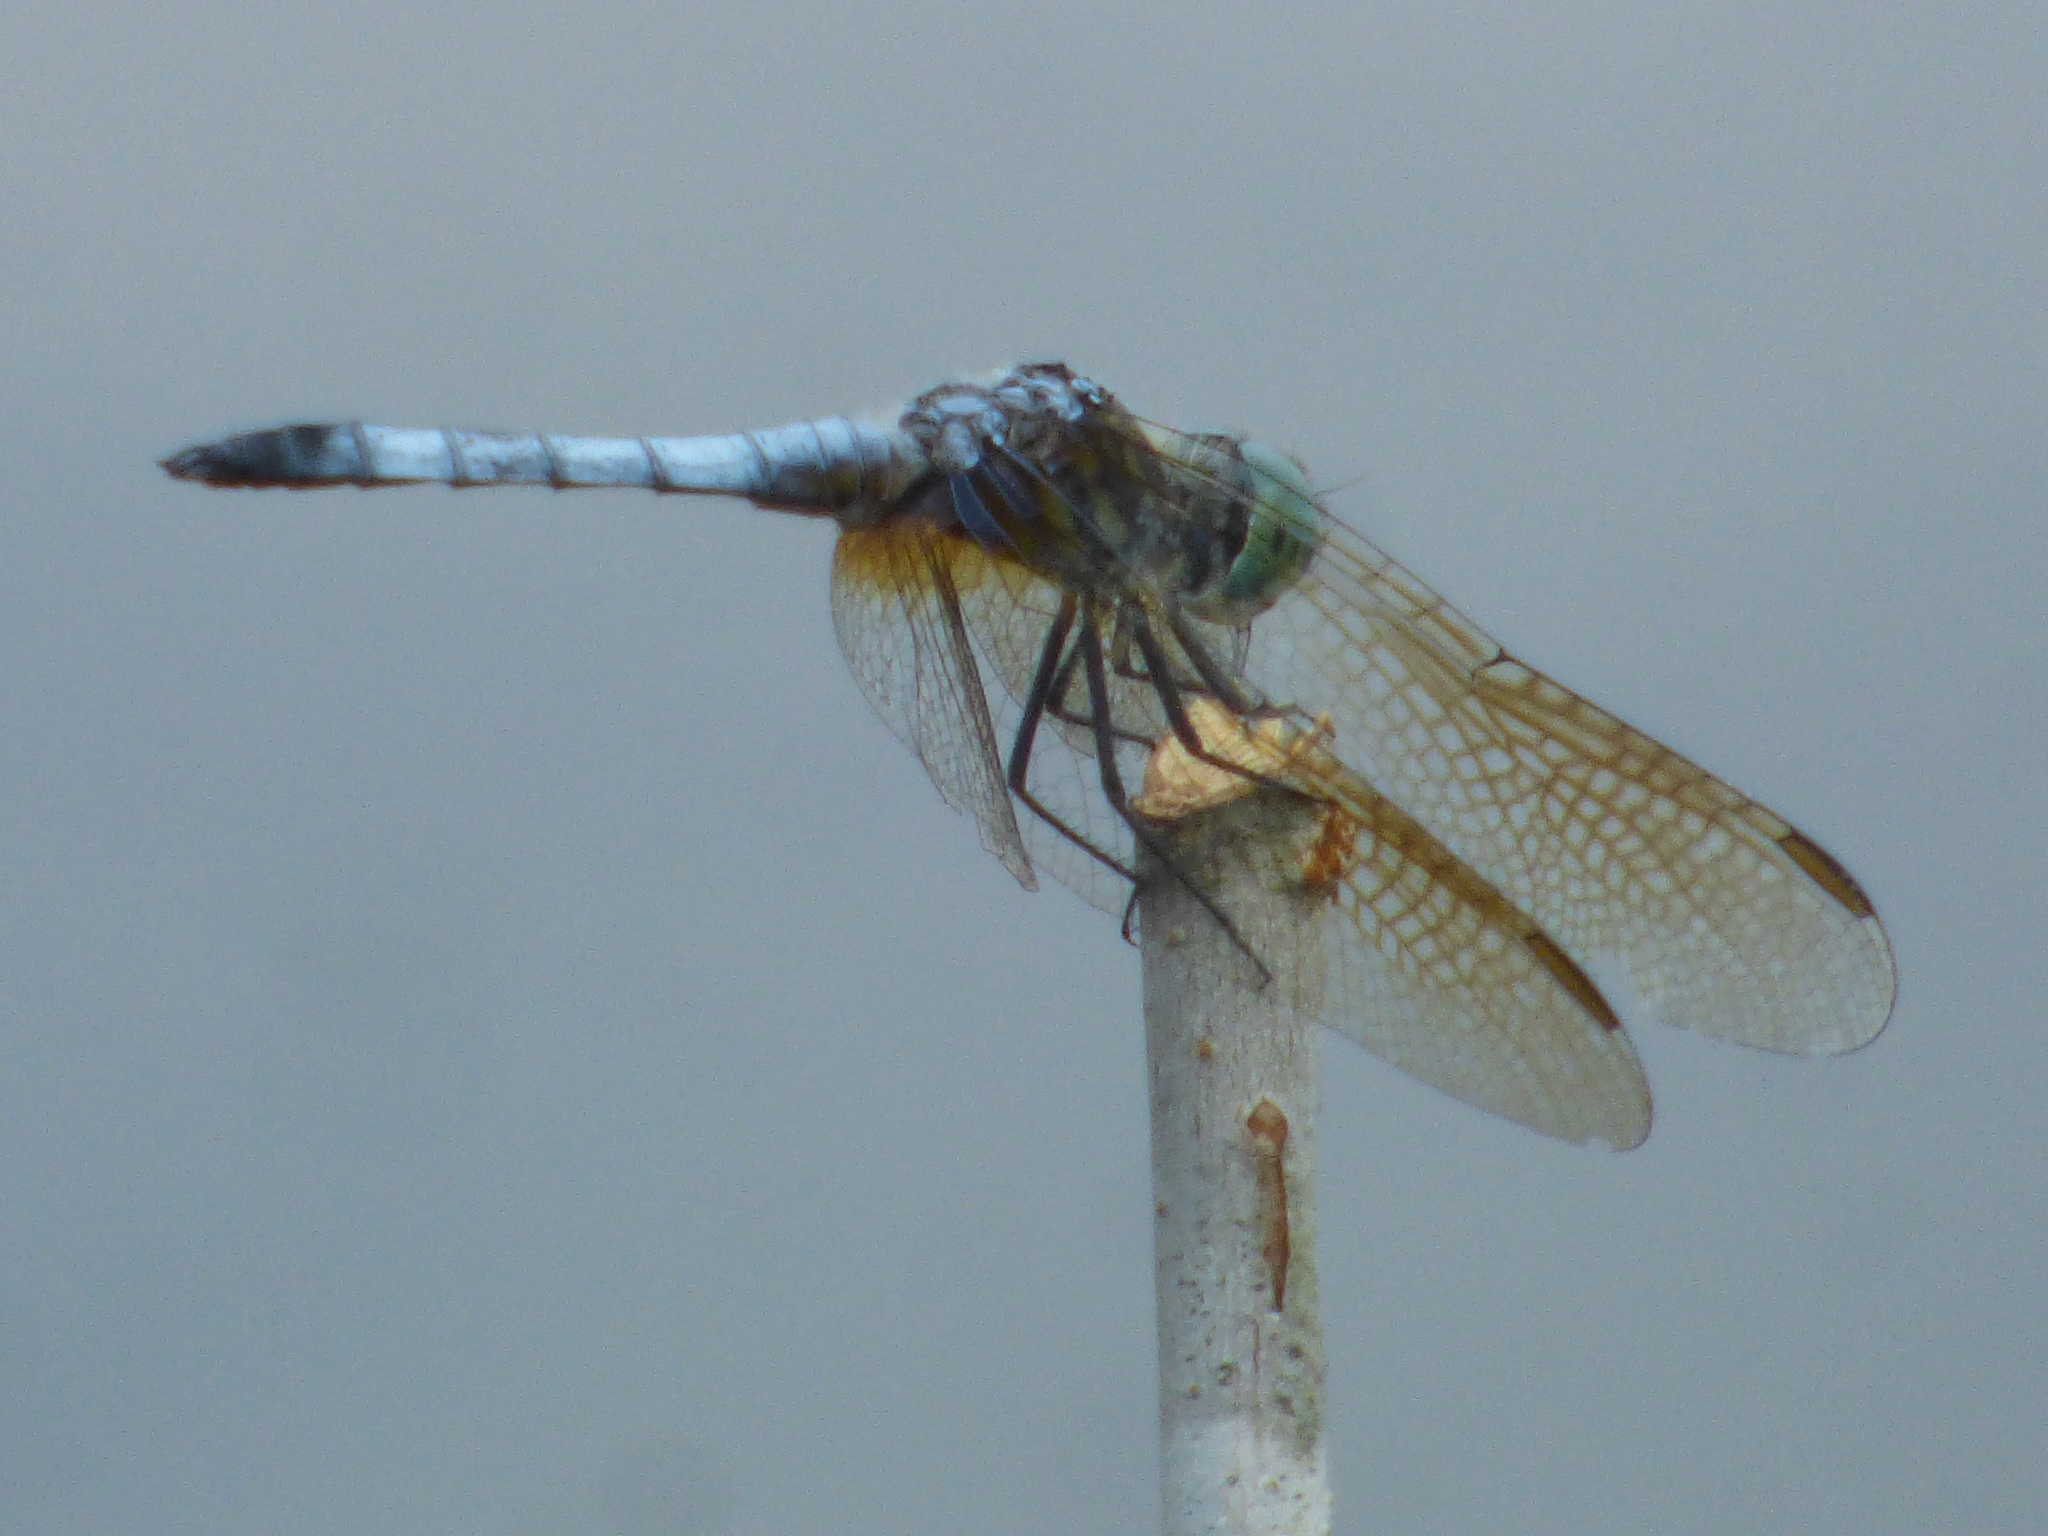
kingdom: Animalia
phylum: Arthropoda
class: Insecta
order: Odonata
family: Libellulidae
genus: Pachydiplax
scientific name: Pachydiplax longipennis
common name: Blue dasher
